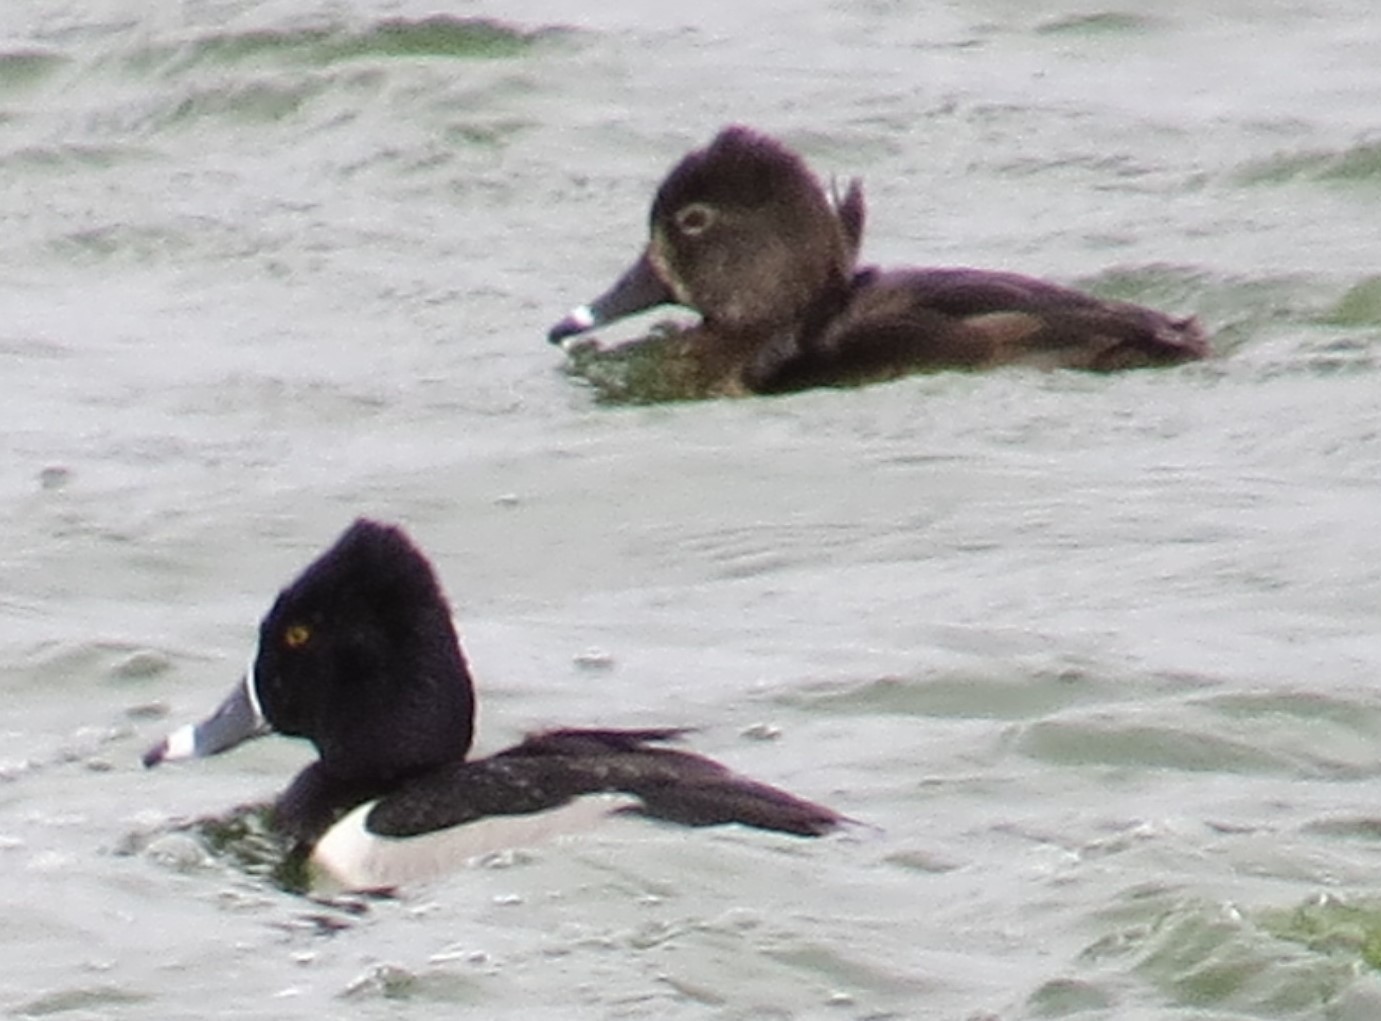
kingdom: Animalia
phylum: Chordata
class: Aves
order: Anseriformes
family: Anatidae
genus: Aythya
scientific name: Aythya collaris
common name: Ring-necked duck
